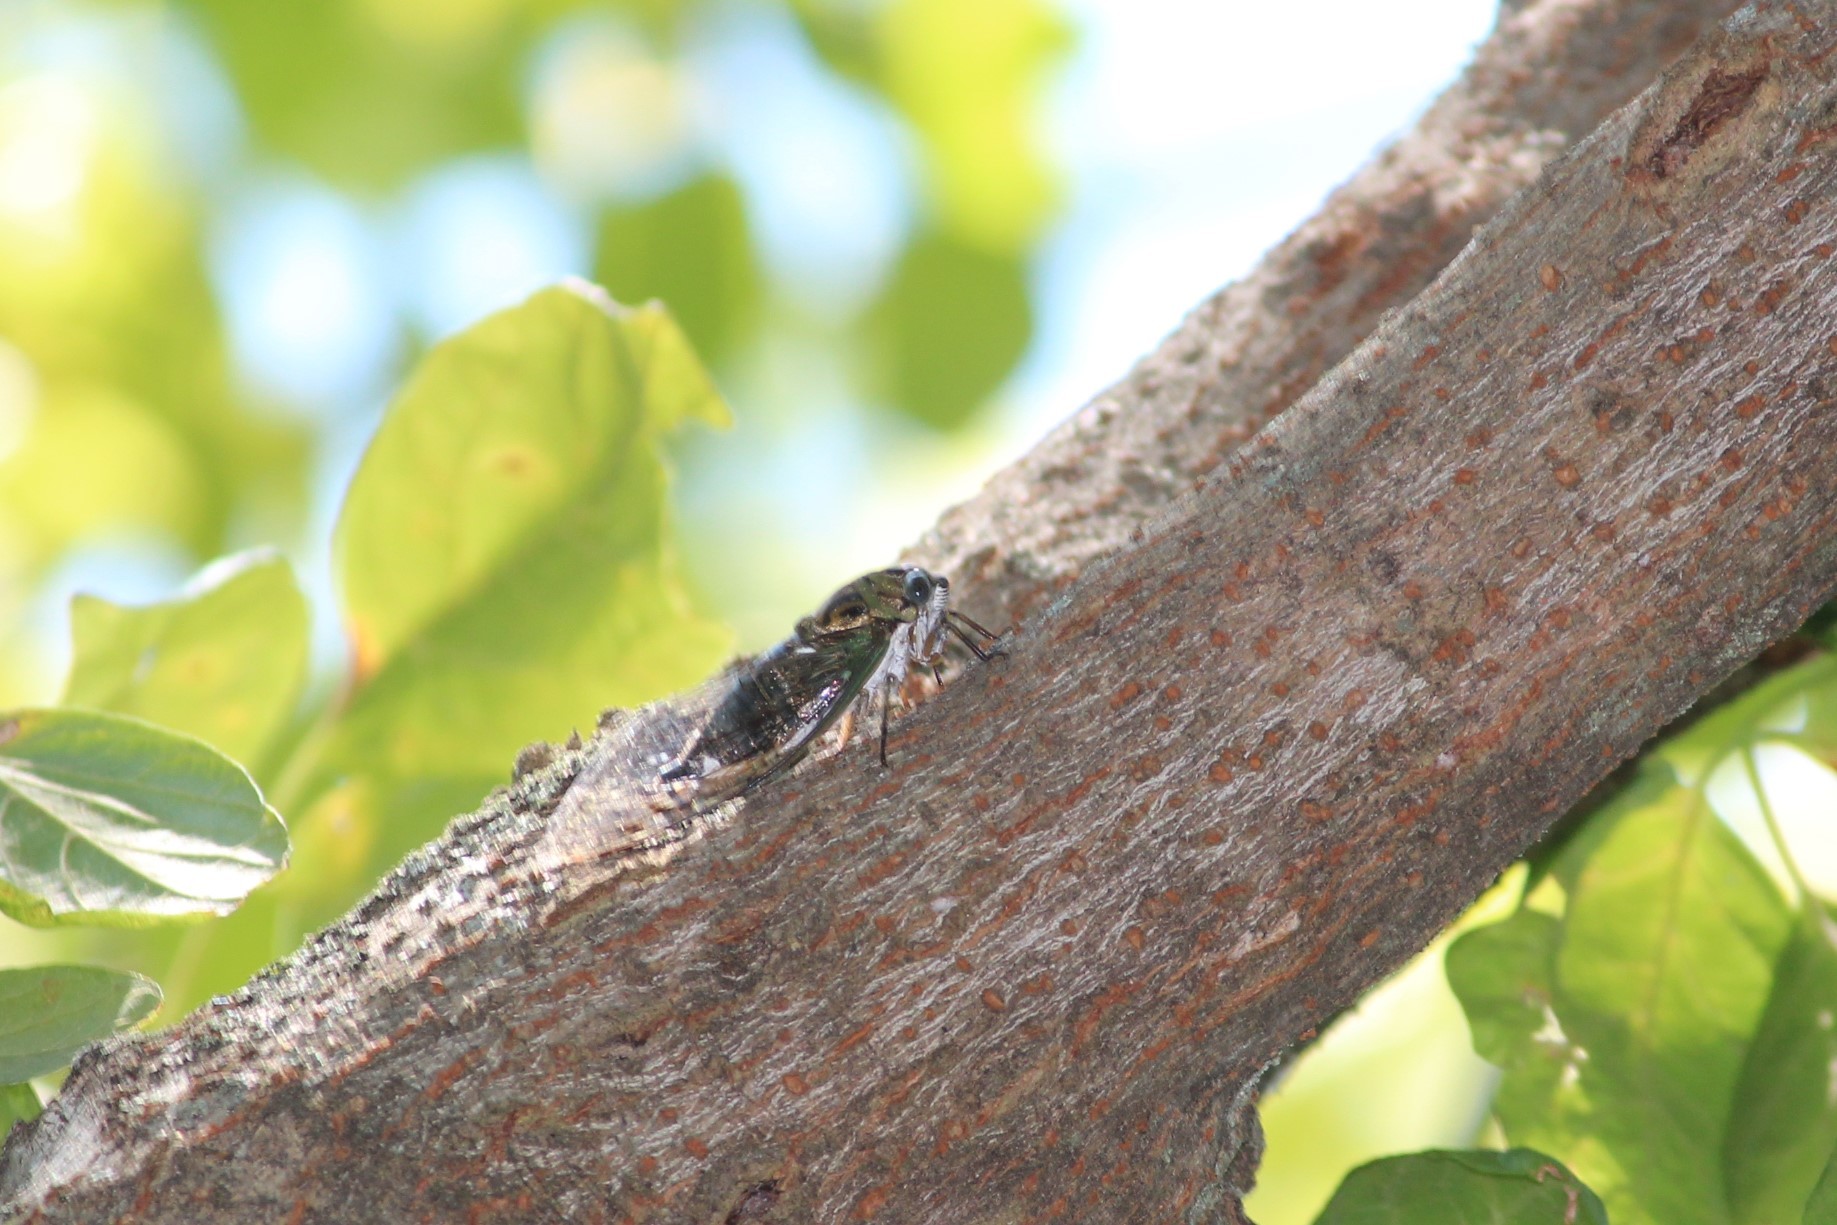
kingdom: Animalia
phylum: Arthropoda
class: Insecta
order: Hemiptera
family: Cicadidae
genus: Neotibicen
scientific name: Neotibicen winnemanna
